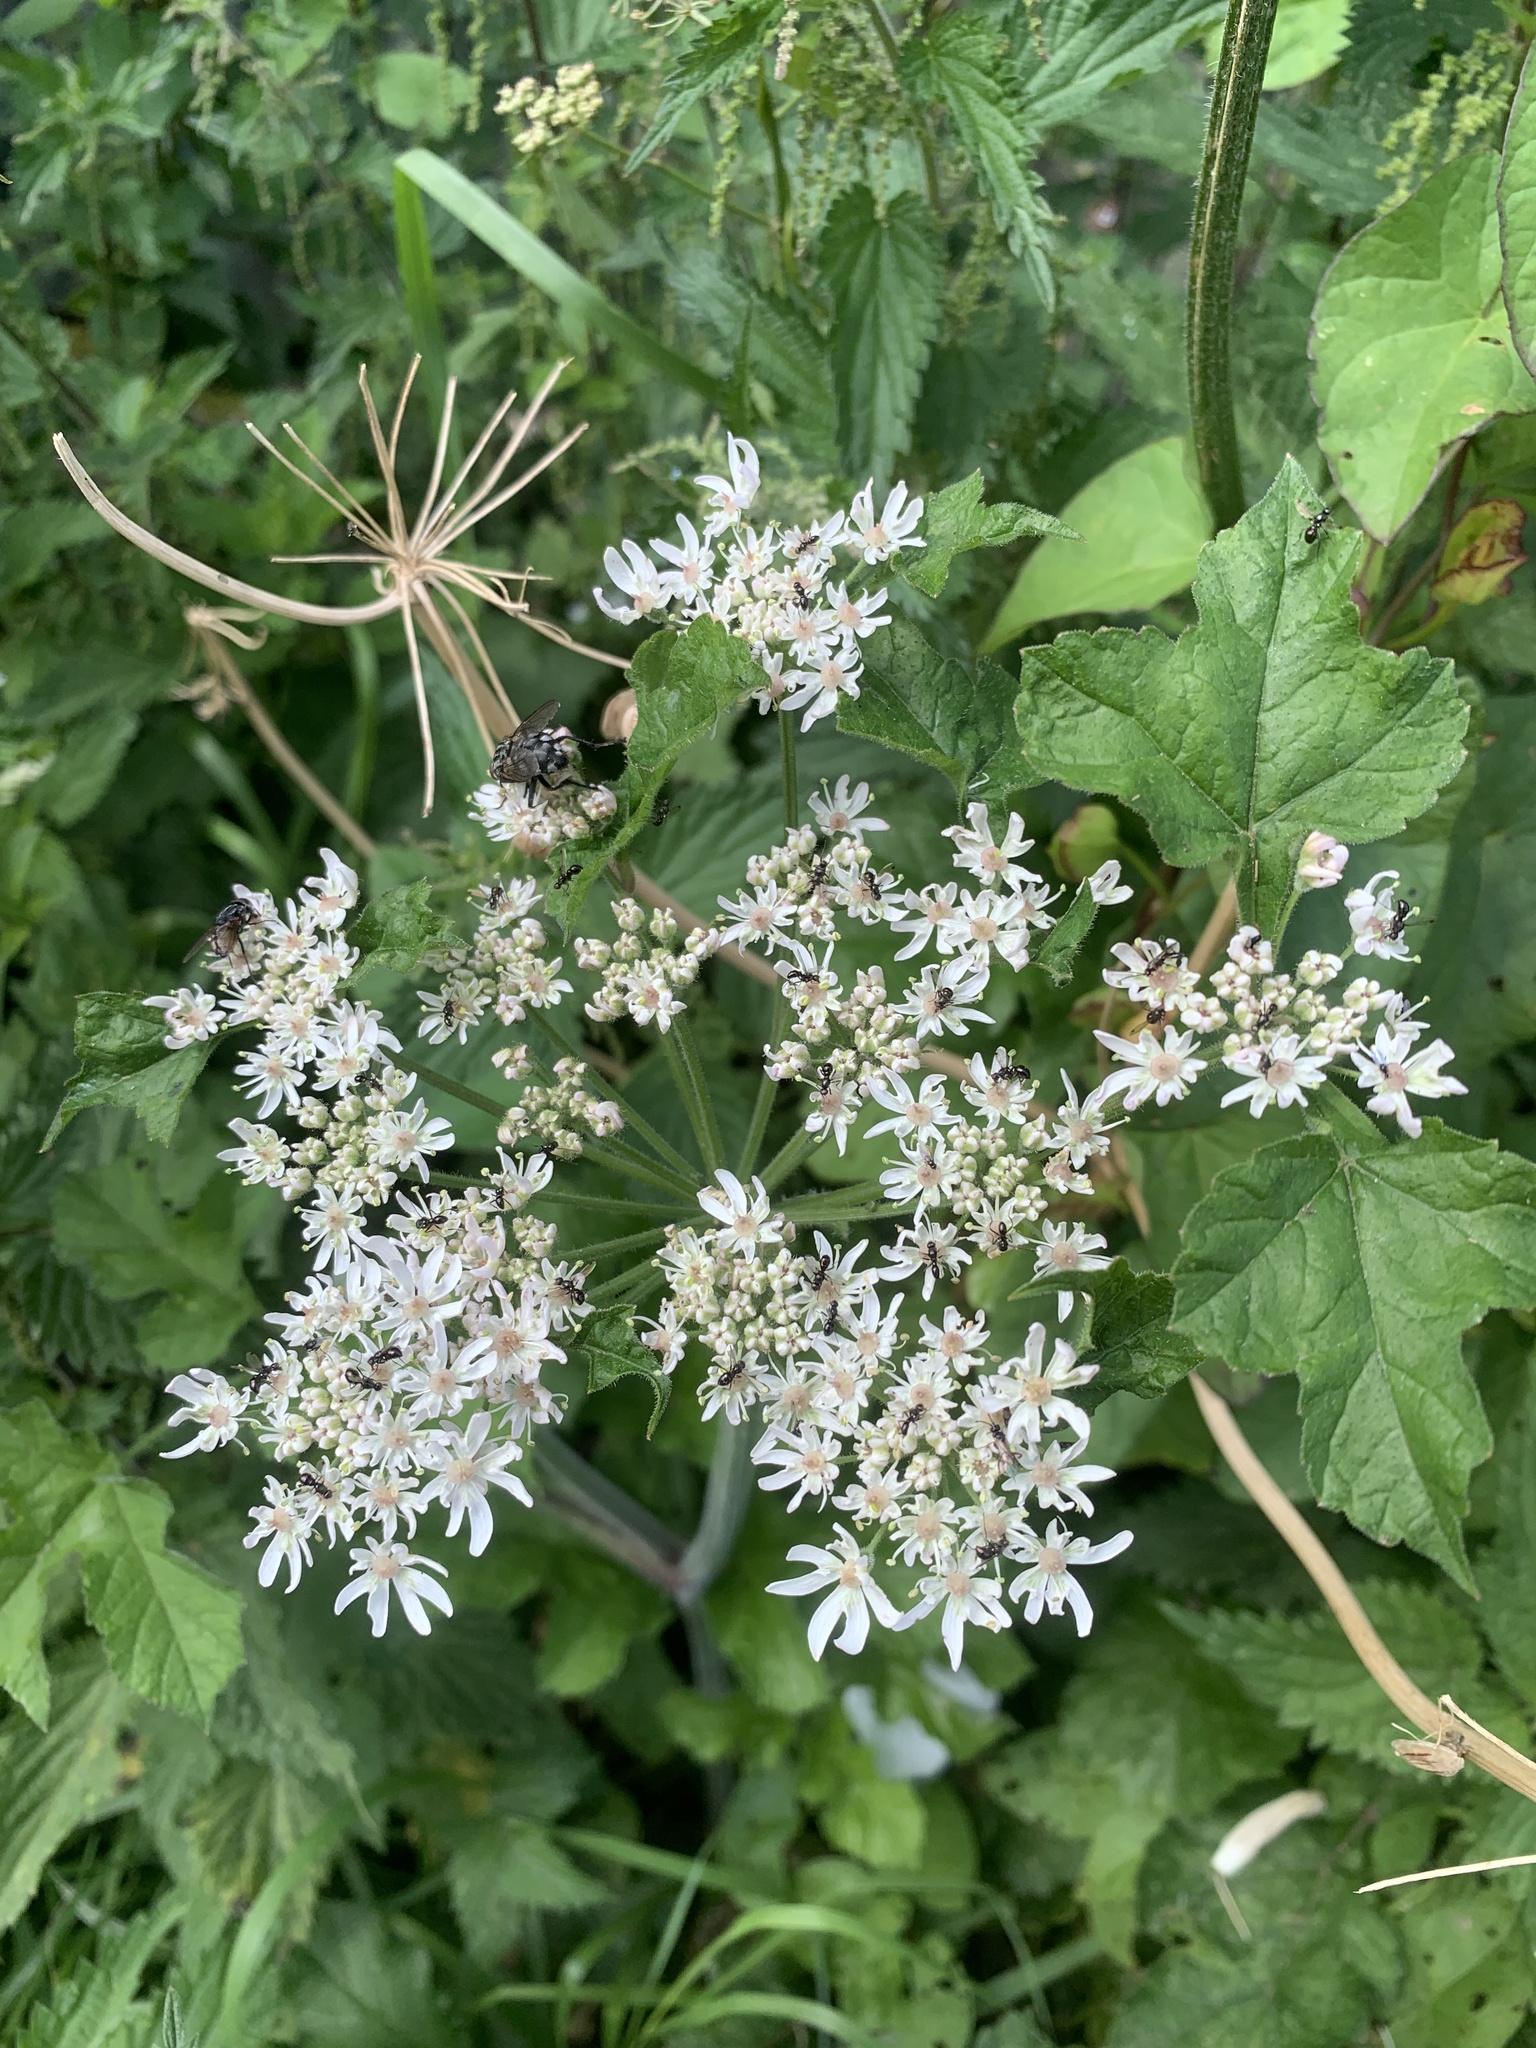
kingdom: Plantae
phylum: Tracheophyta
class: Magnoliopsida
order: Apiales
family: Apiaceae
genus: Heracleum
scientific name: Heracleum sphondylium
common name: Hogweed
